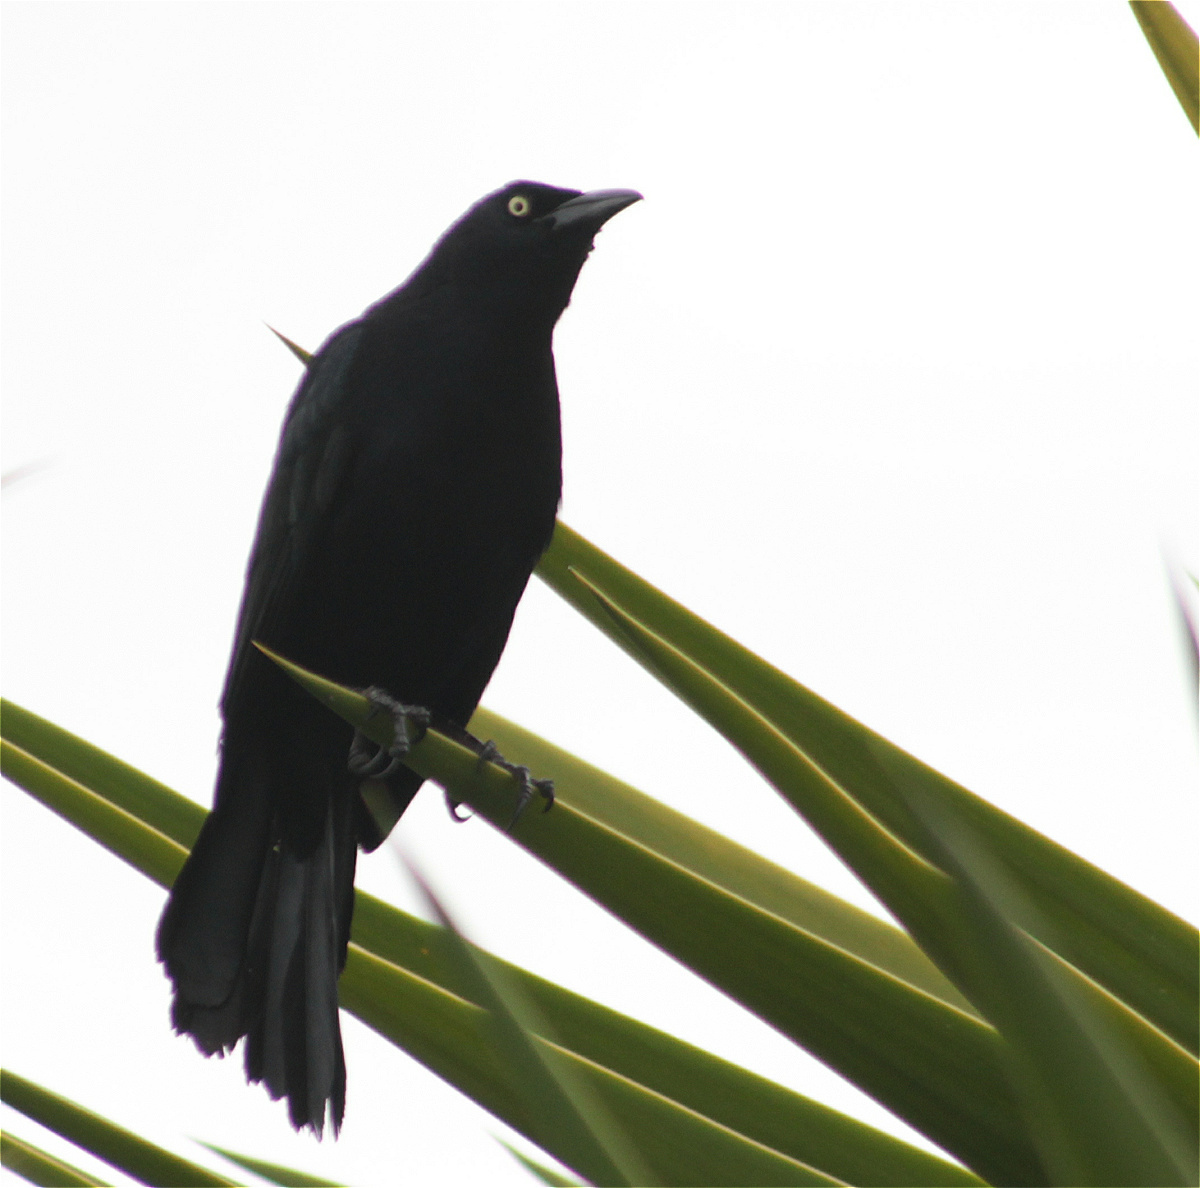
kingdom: Animalia
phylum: Chordata
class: Aves
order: Passeriformes
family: Icteridae
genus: Quiscalus
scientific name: Quiscalus lugubris
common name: Carib grackle
